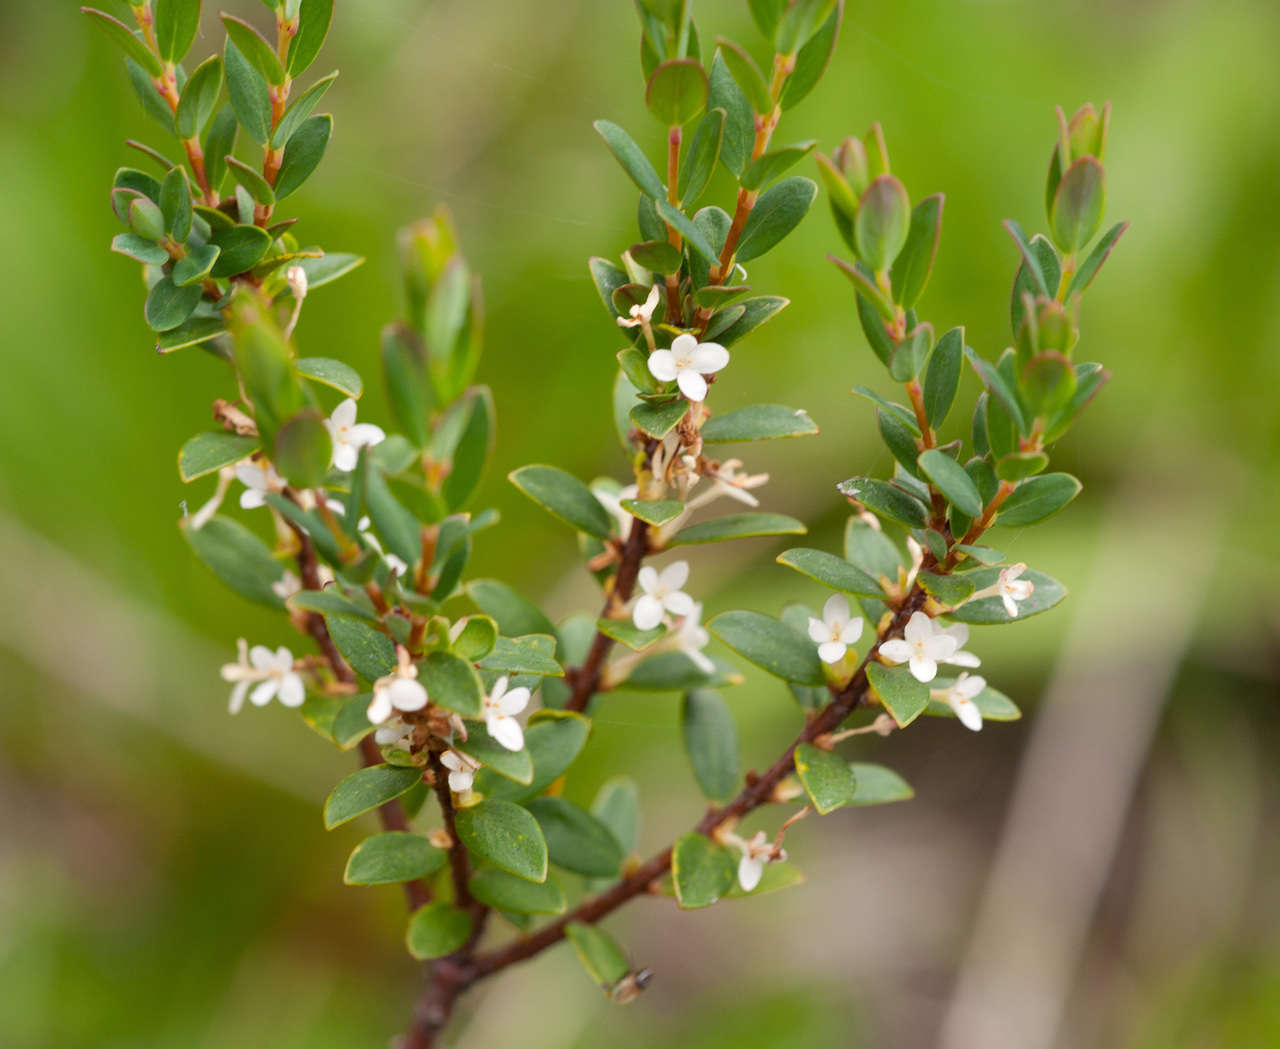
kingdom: Plantae
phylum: Tracheophyta
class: Magnoliopsida
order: Malvales
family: Thymelaeaceae
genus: Pimelea
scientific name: Pimelea axiflora
